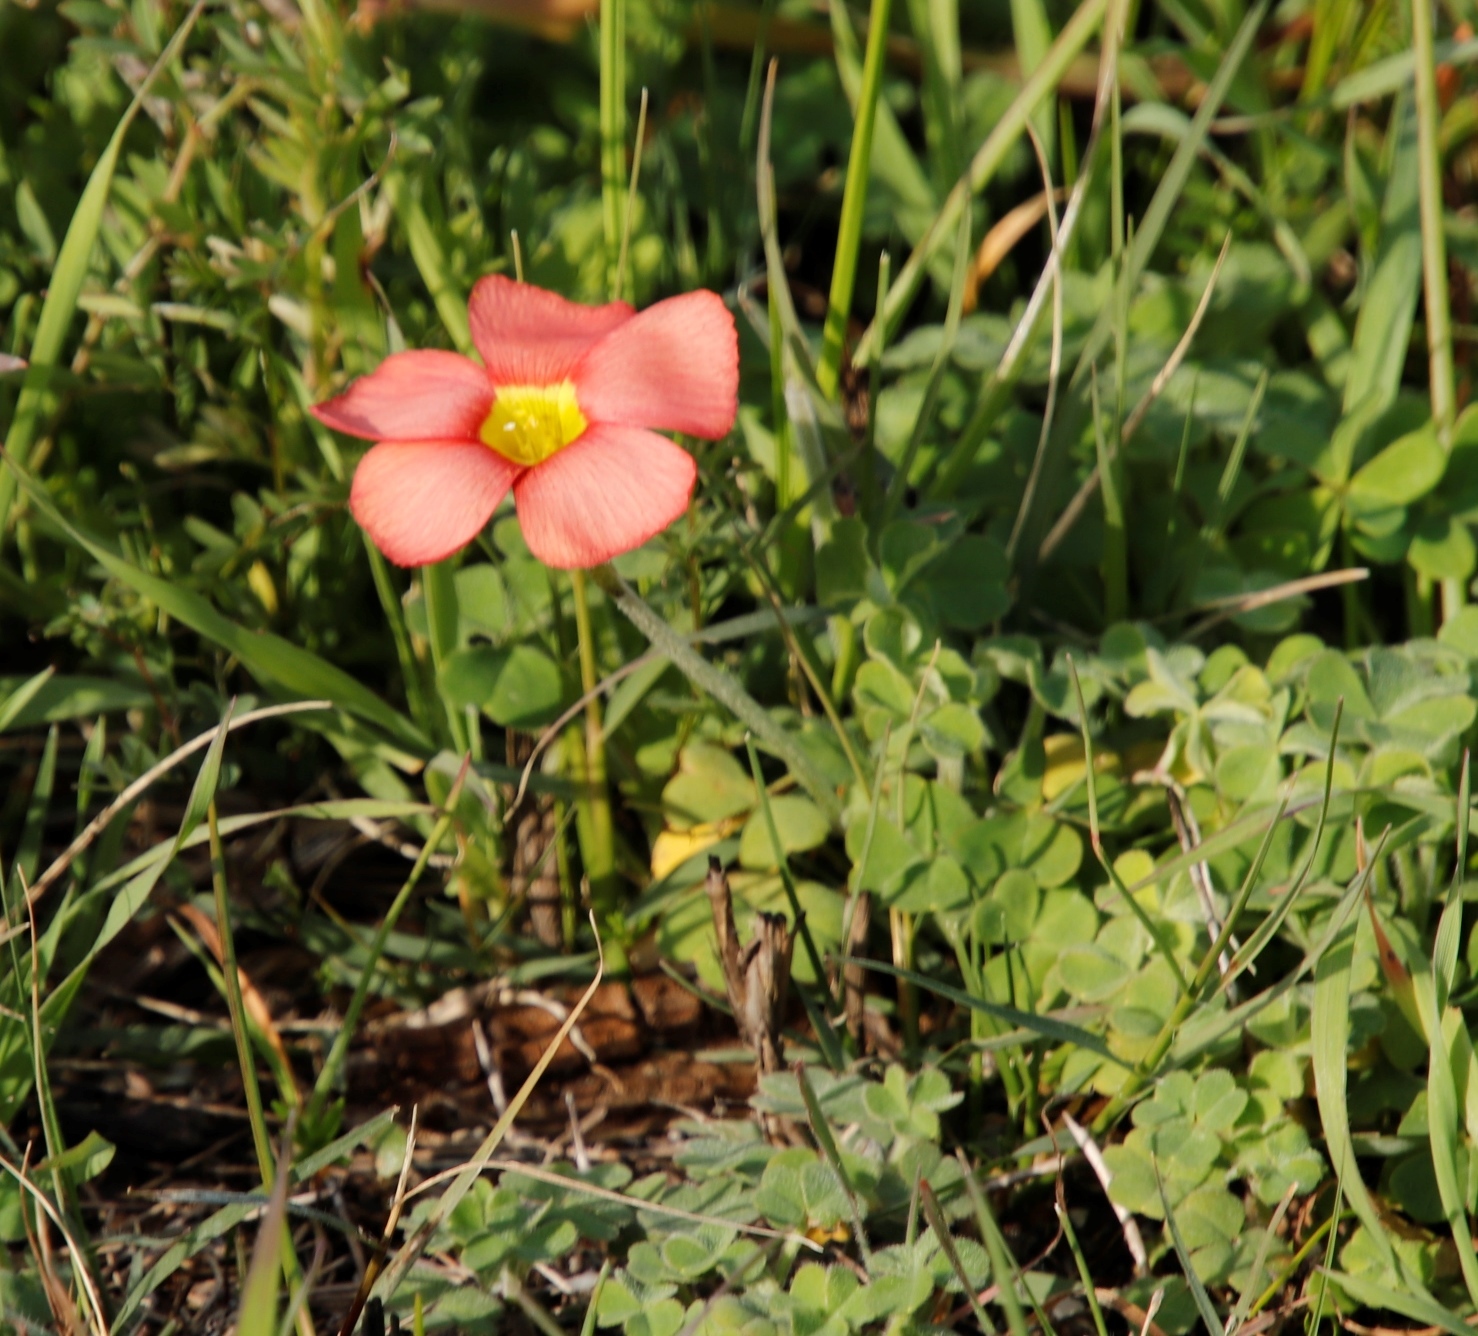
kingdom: Plantae
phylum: Tracheophyta
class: Magnoliopsida
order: Oxalidales
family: Oxalidaceae
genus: Oxalis
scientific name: Oxalis obtusa
